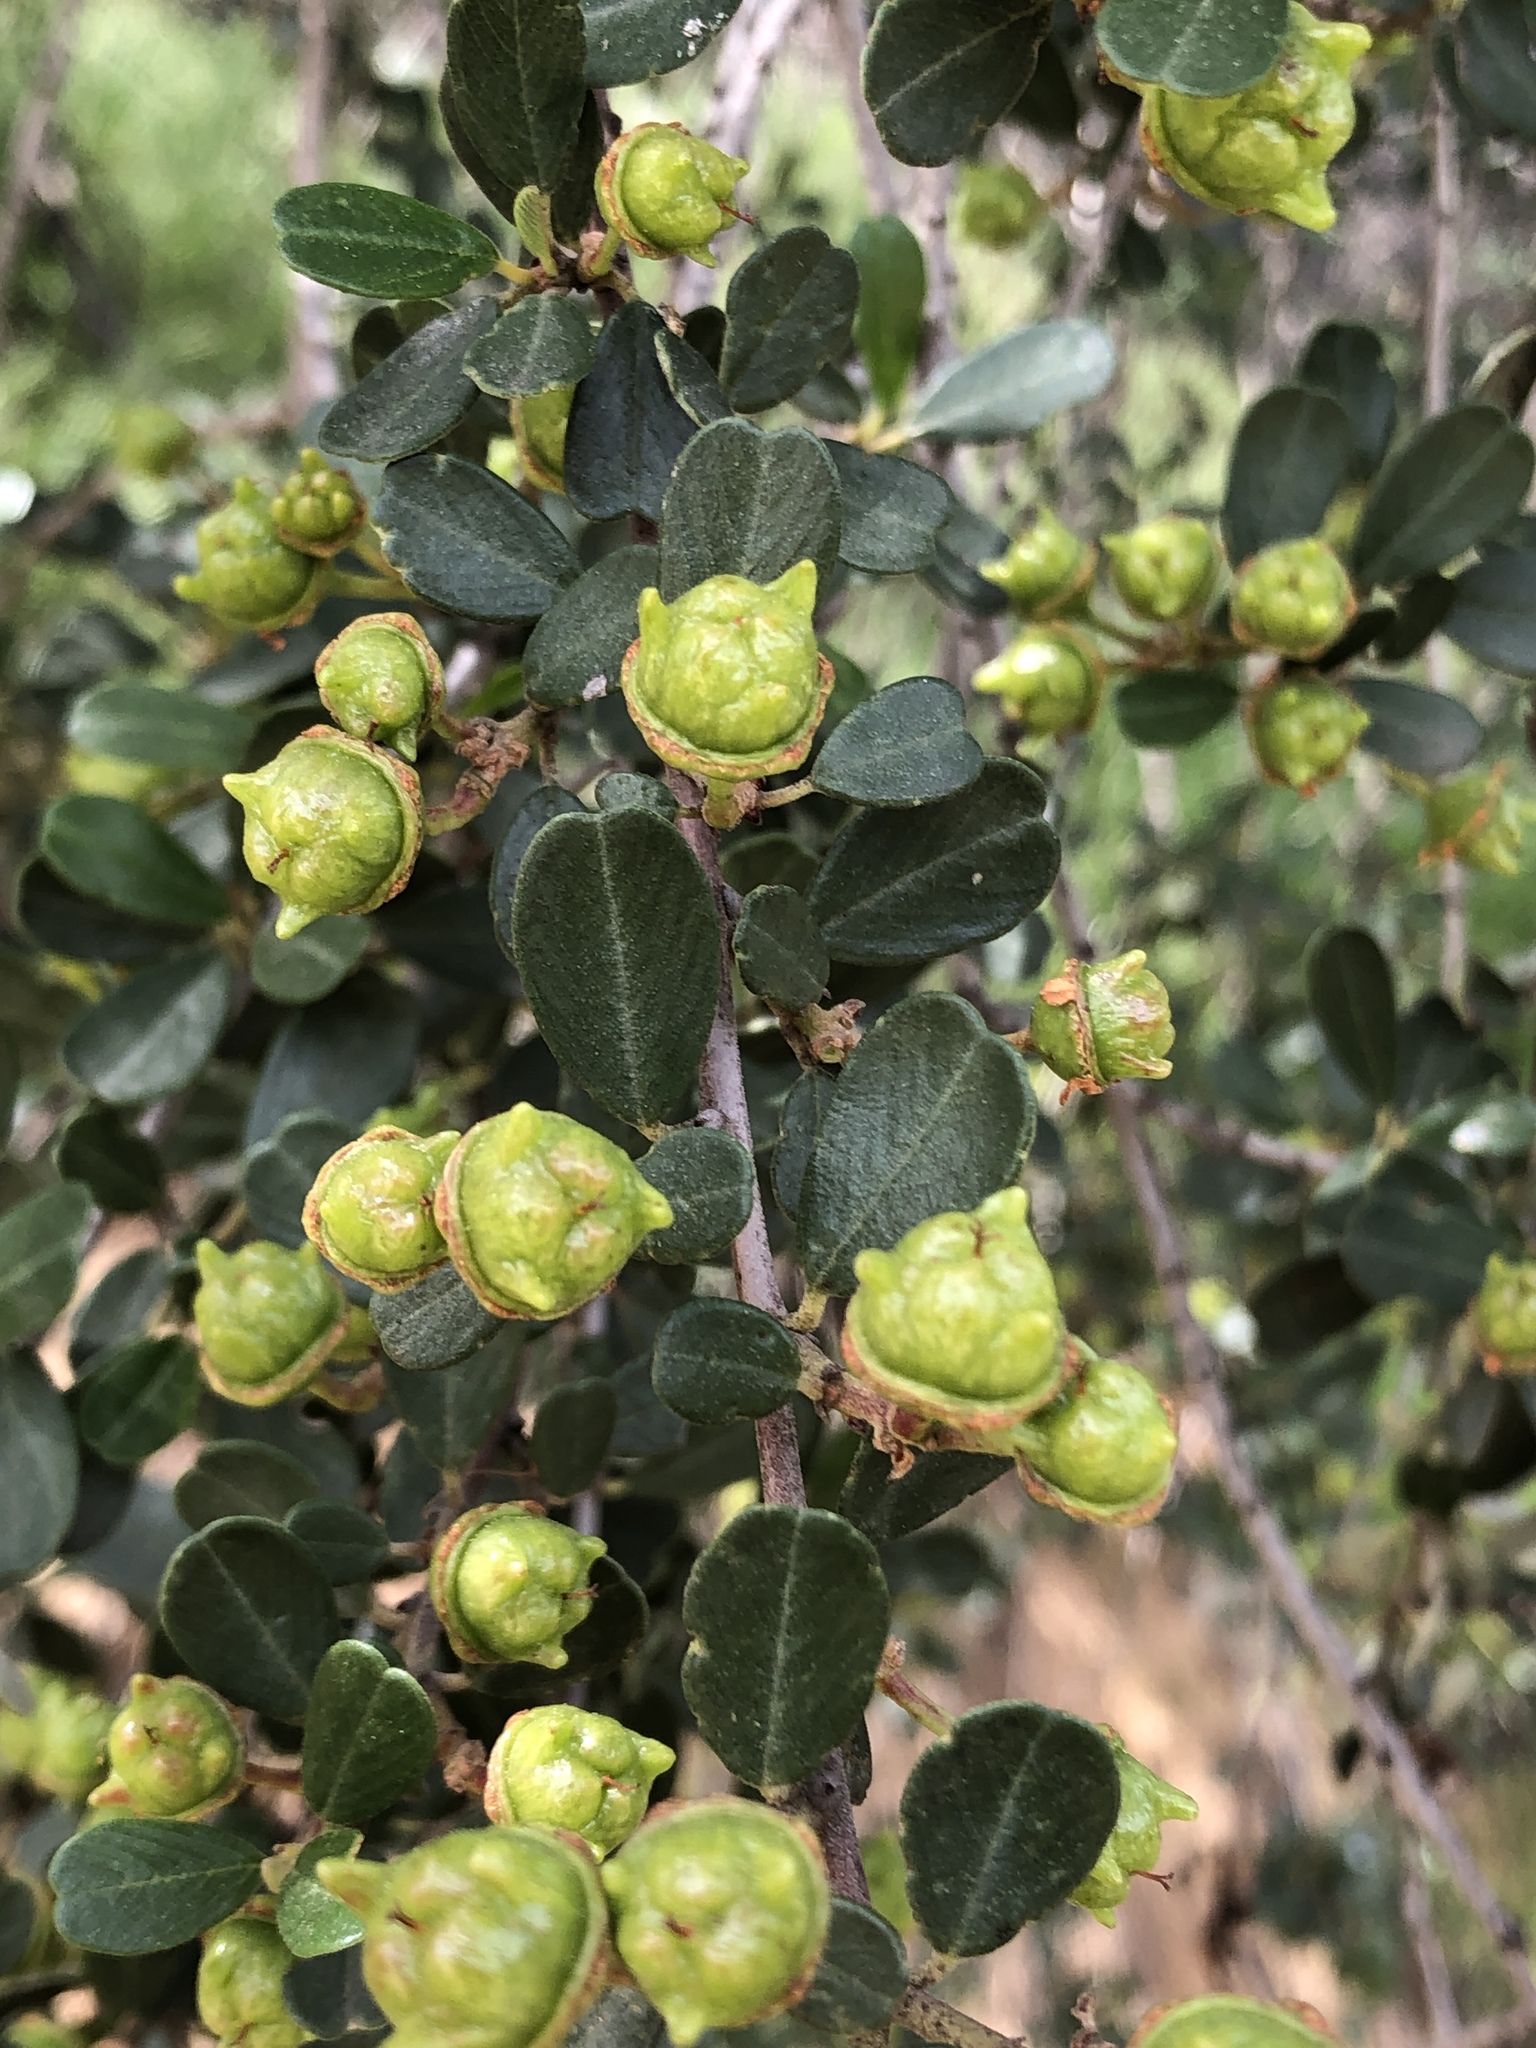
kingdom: Plantae
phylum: Tracheophyta
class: Magnoliopsida
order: Rosales
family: Rhamnaceae
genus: Ceanothus
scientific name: Ceanothus megacarpus
